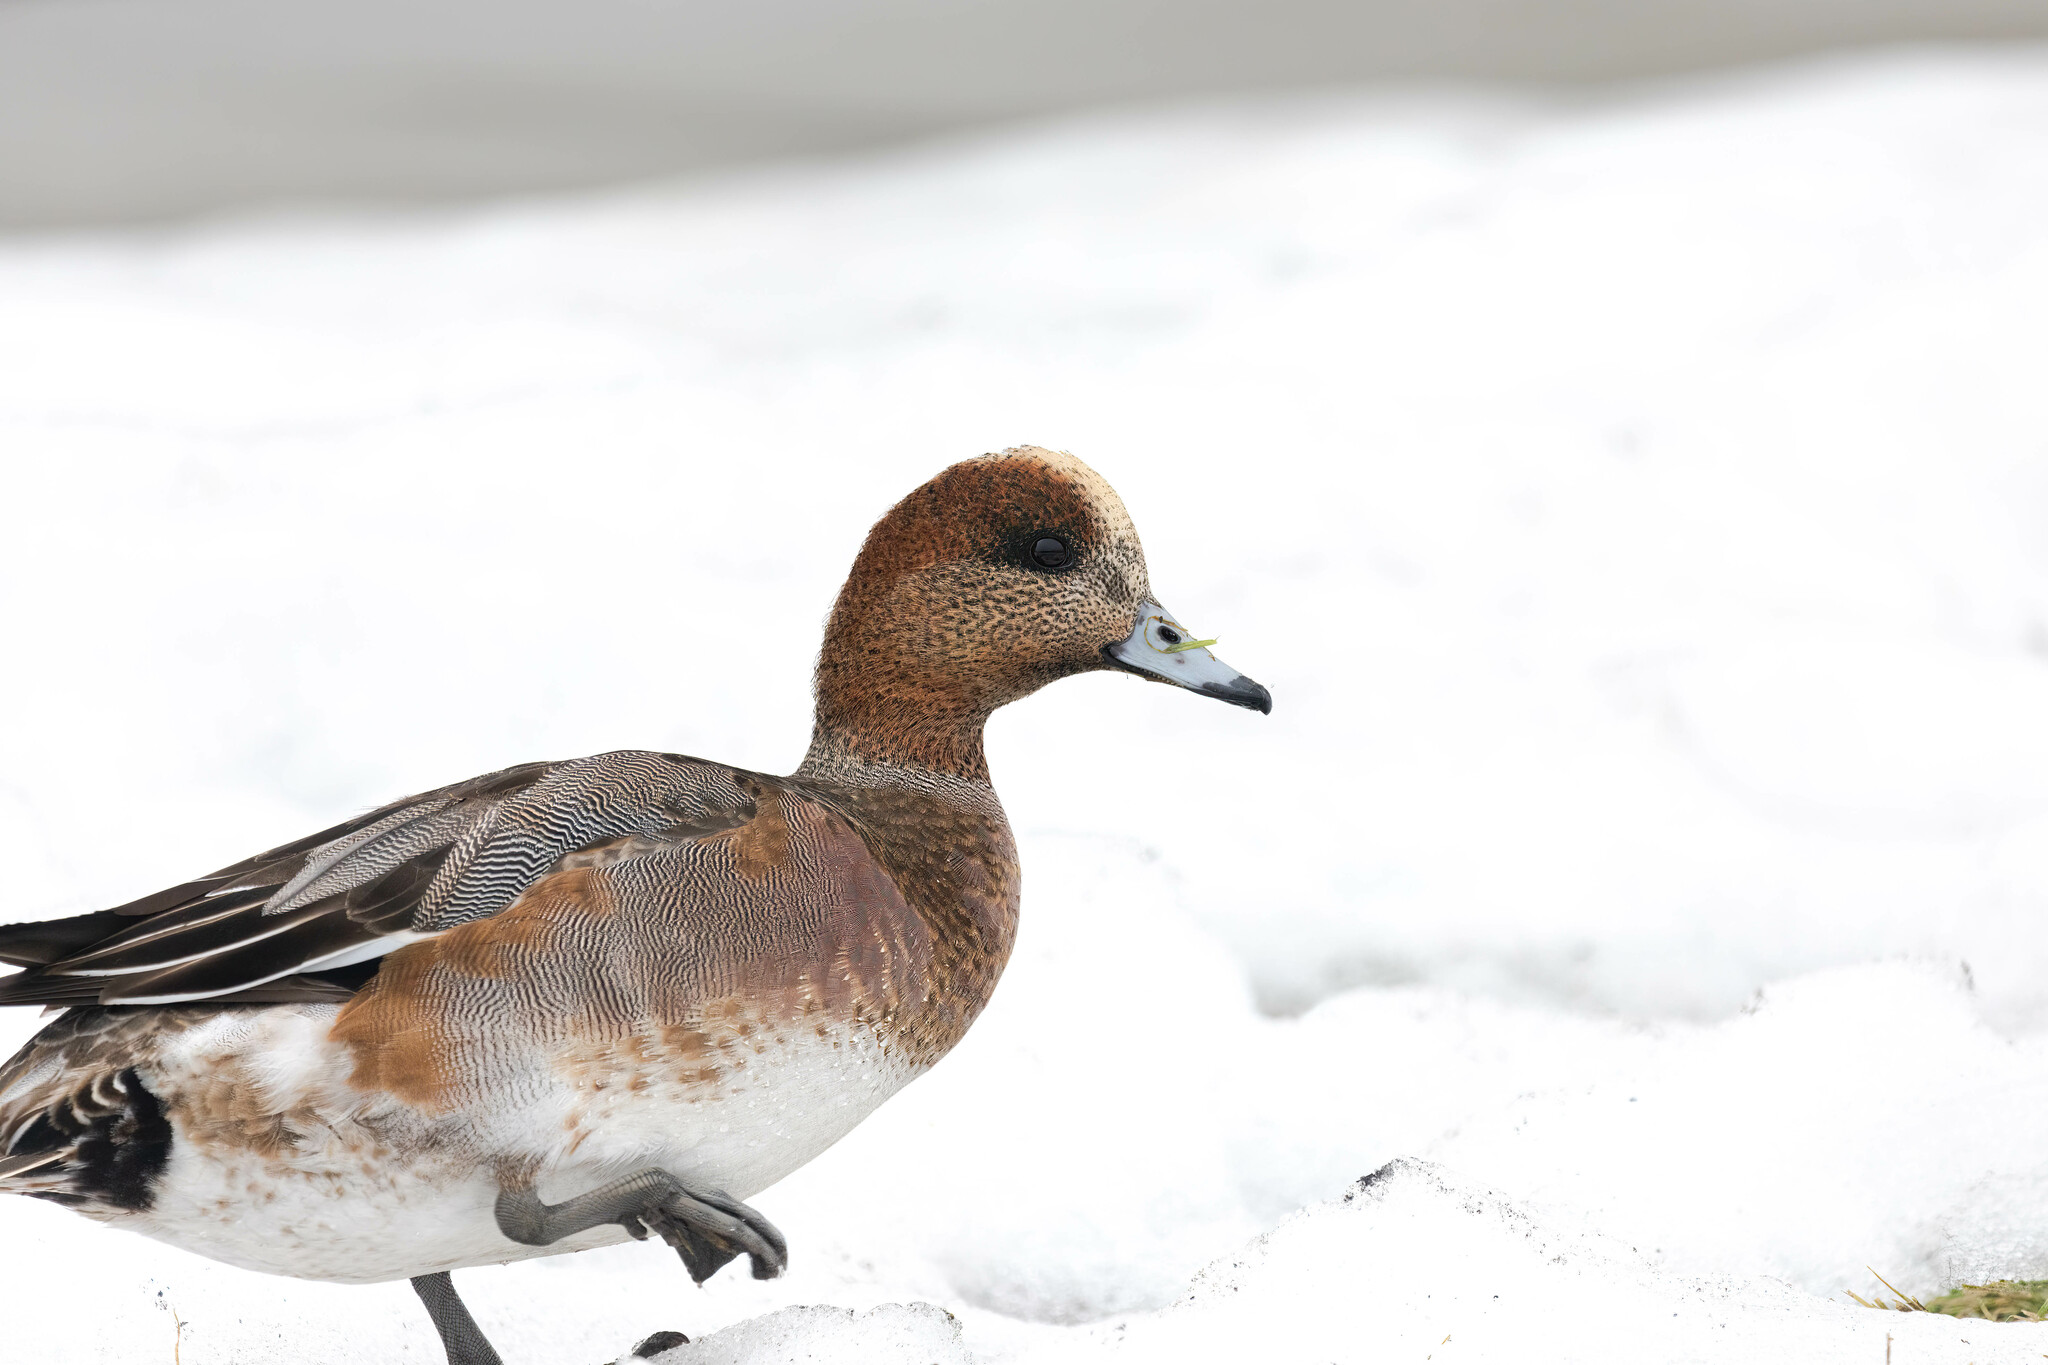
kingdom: Animalia
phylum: Chordata
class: Aves
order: Anseriformes
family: Anatidae
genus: Mareca
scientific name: Mareca
